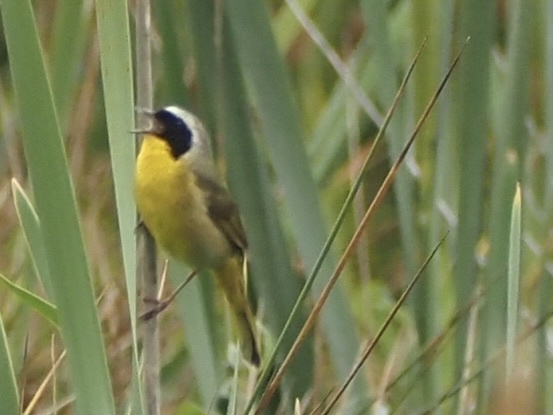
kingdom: Animalia
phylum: Chordata
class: Aves
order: Passeriformes
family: Parulidae
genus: Geothlypis
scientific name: Geothlypis trichas
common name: Common yellowthroat
